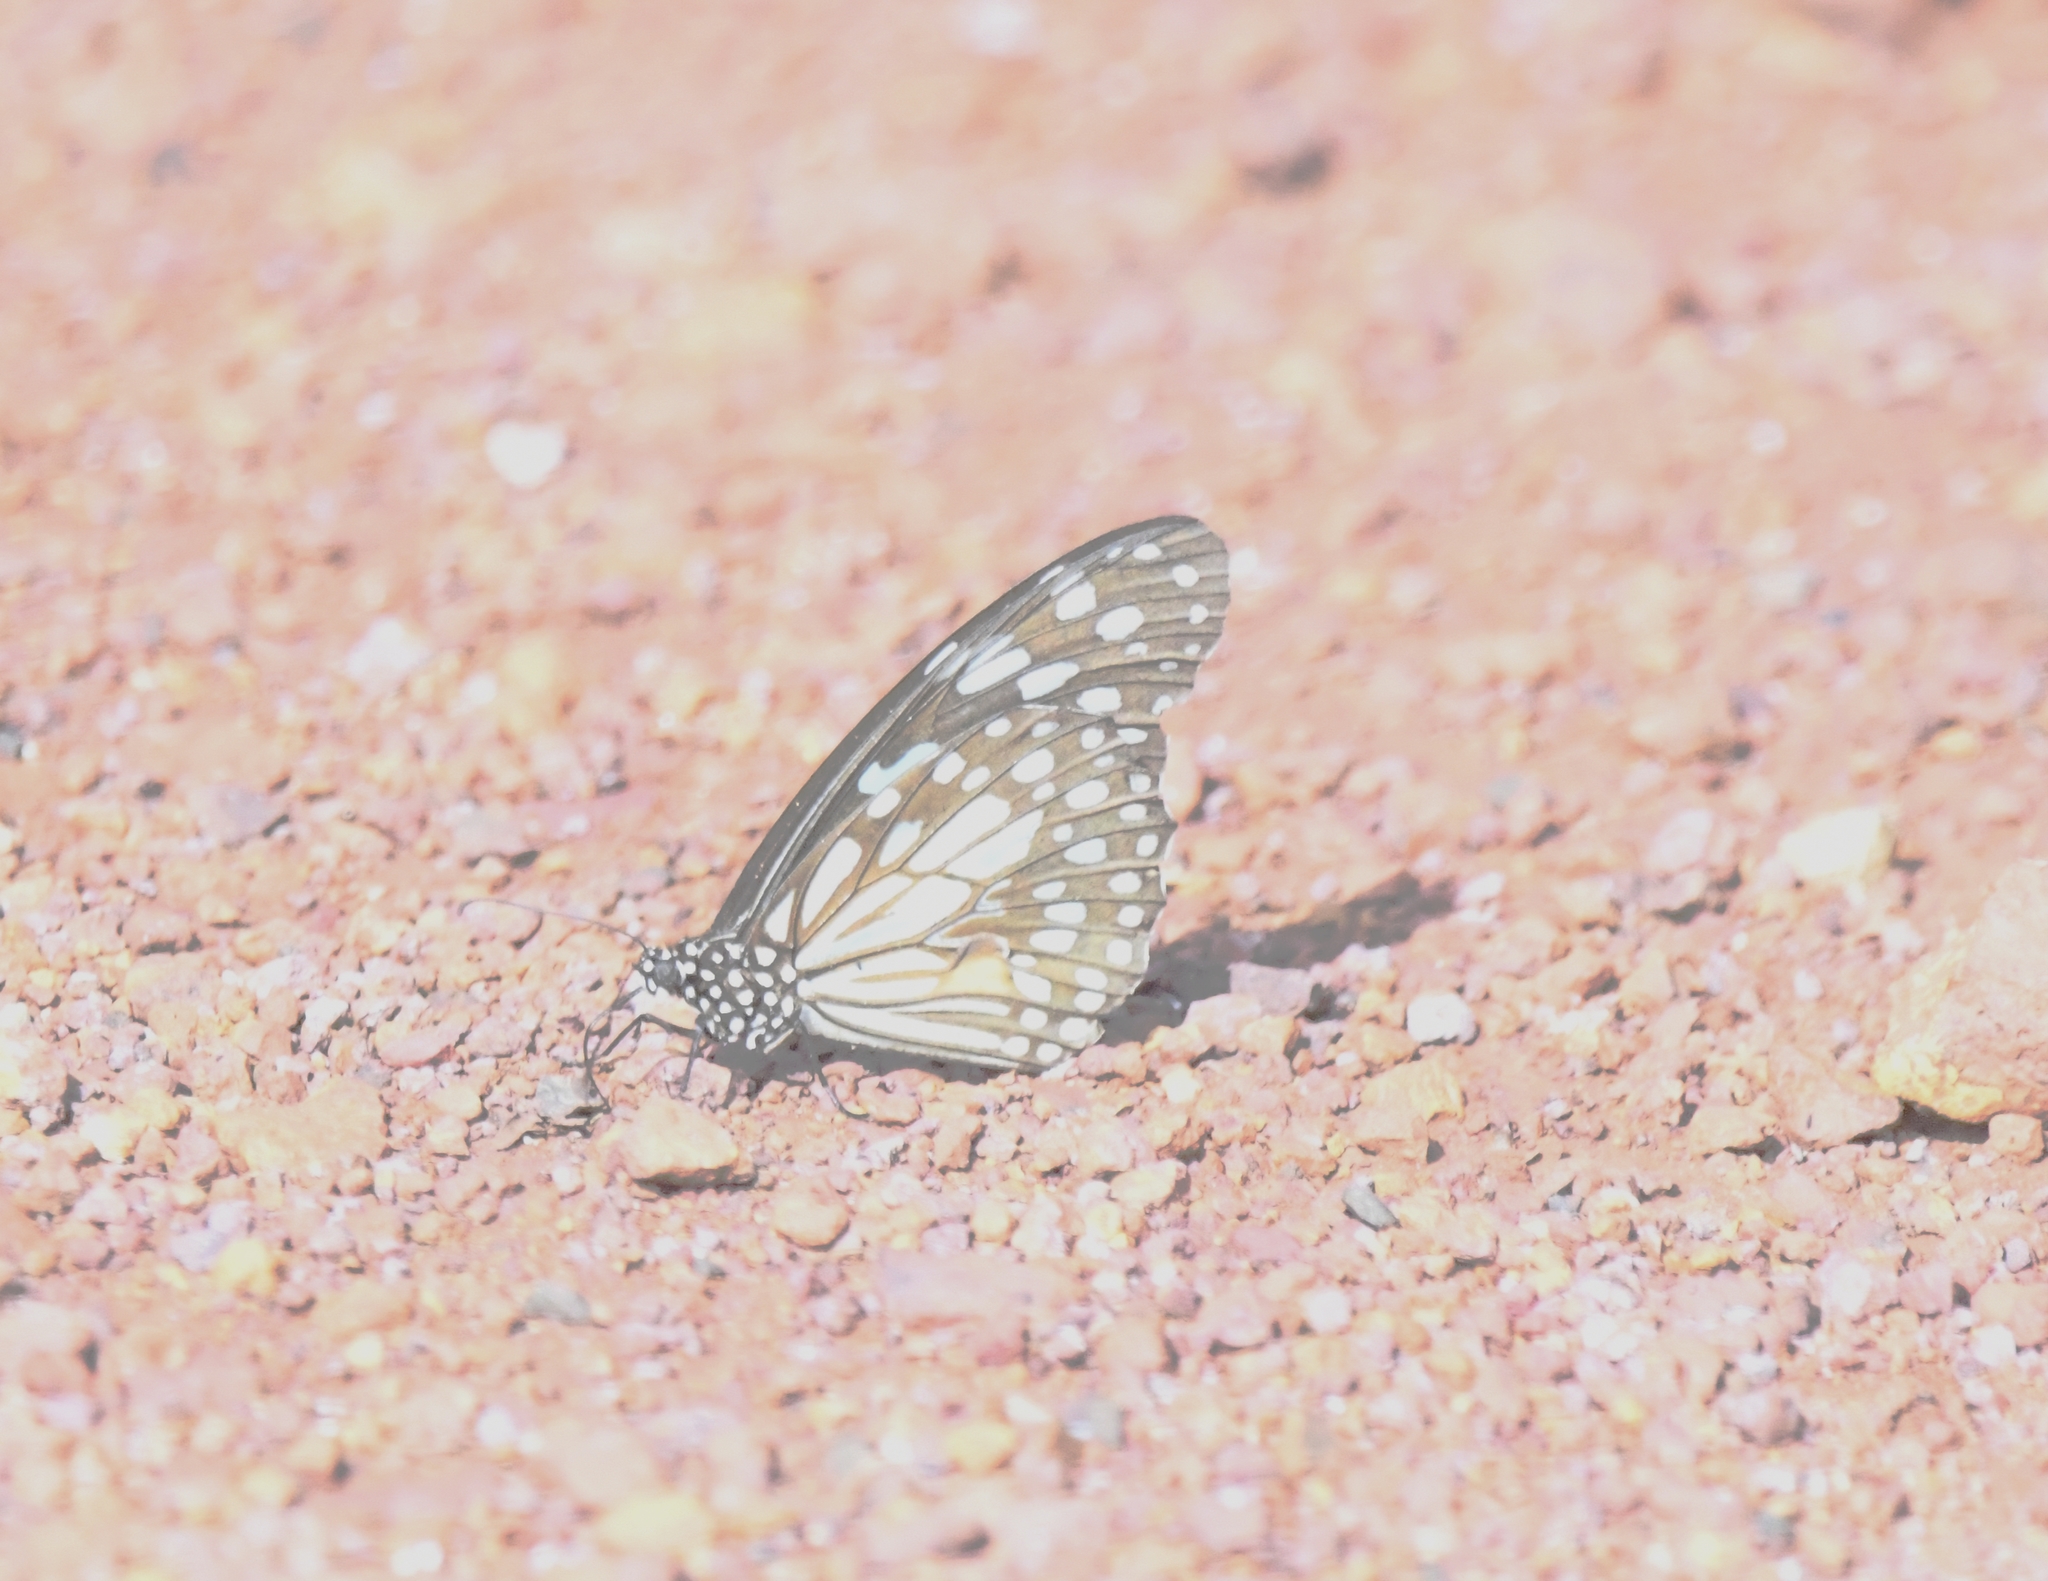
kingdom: Animalia
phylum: Arthropoda
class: Insecta
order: Lepidoptera
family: Nymphalidae
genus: Tirumala
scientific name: Tirumala limniace
